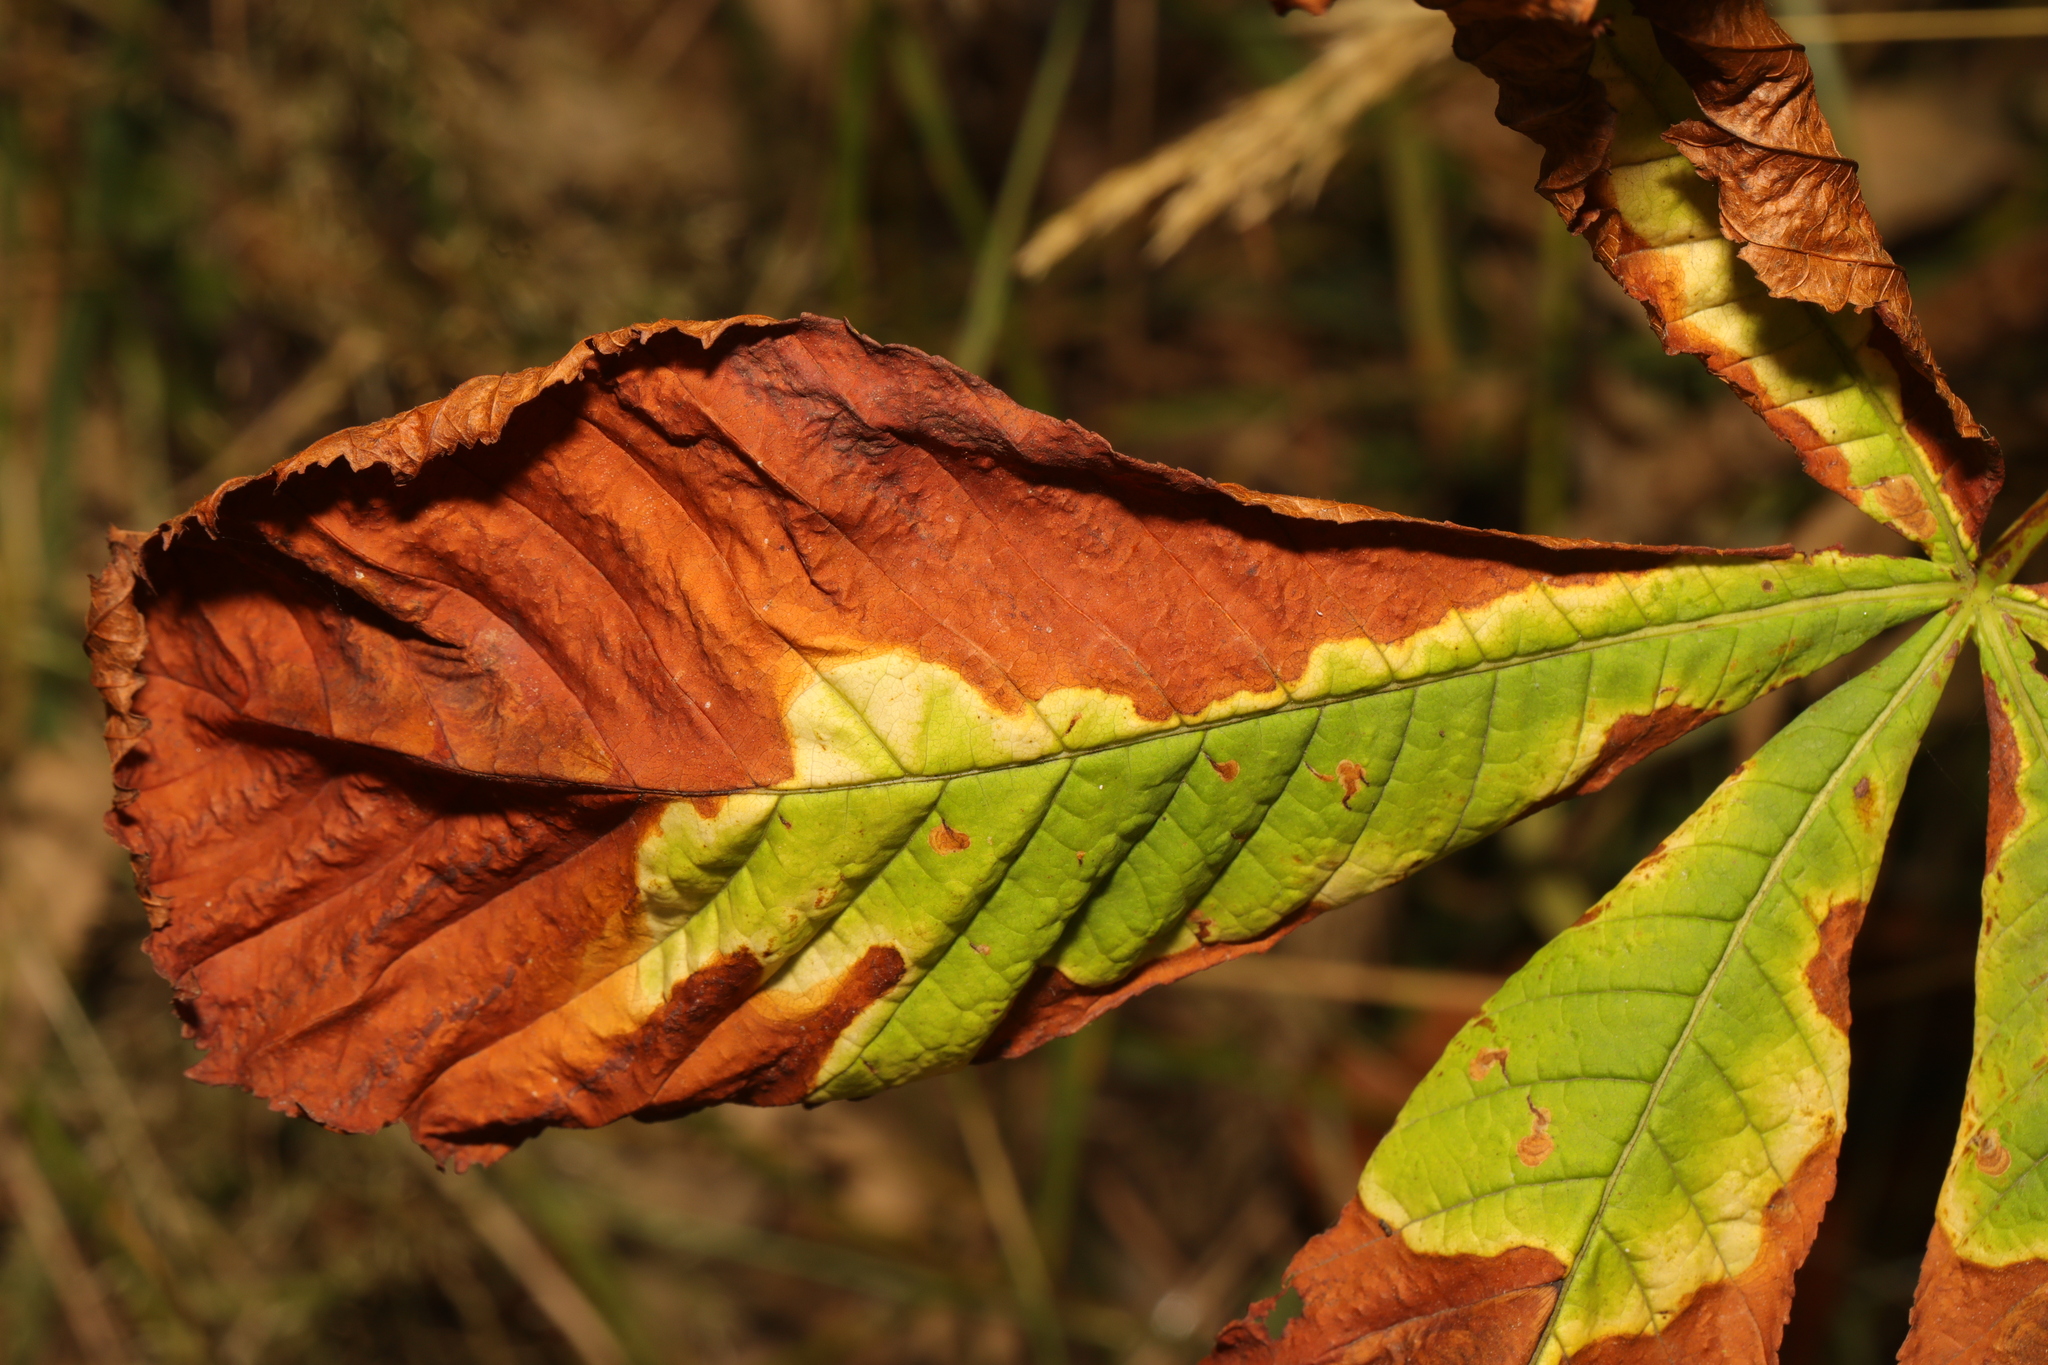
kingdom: Fungi
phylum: Ascomycota
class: Dothideomycetes
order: Botryosphaeriales
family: Phyllostictaceae
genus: Phyllosticta
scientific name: Phyllosticta paviae
